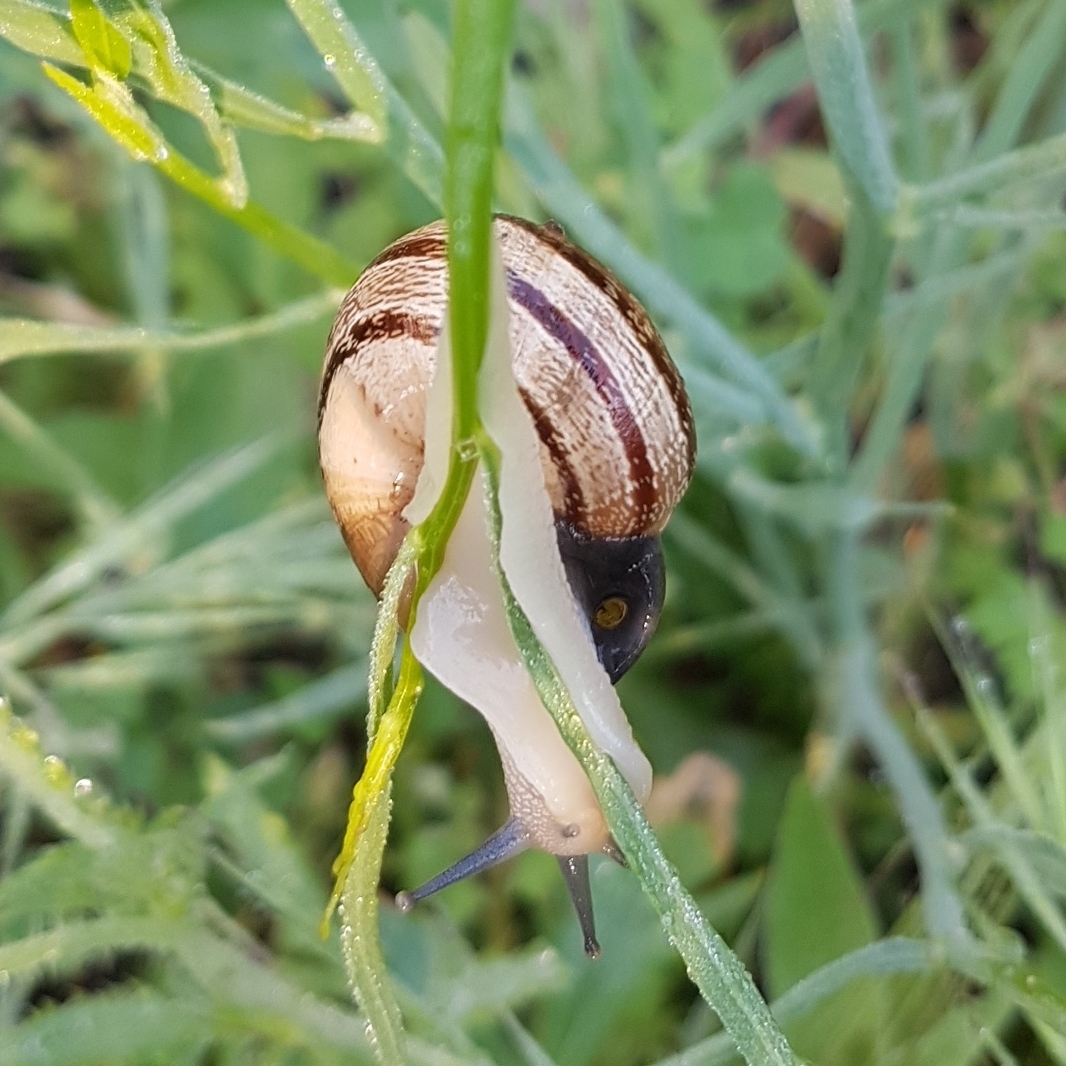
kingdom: Animalia
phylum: Mollusca
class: Gastropoda
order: Stylommatophora
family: Helicidae
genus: Eobania
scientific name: Eobania vermiculata
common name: Chocolateband snail
